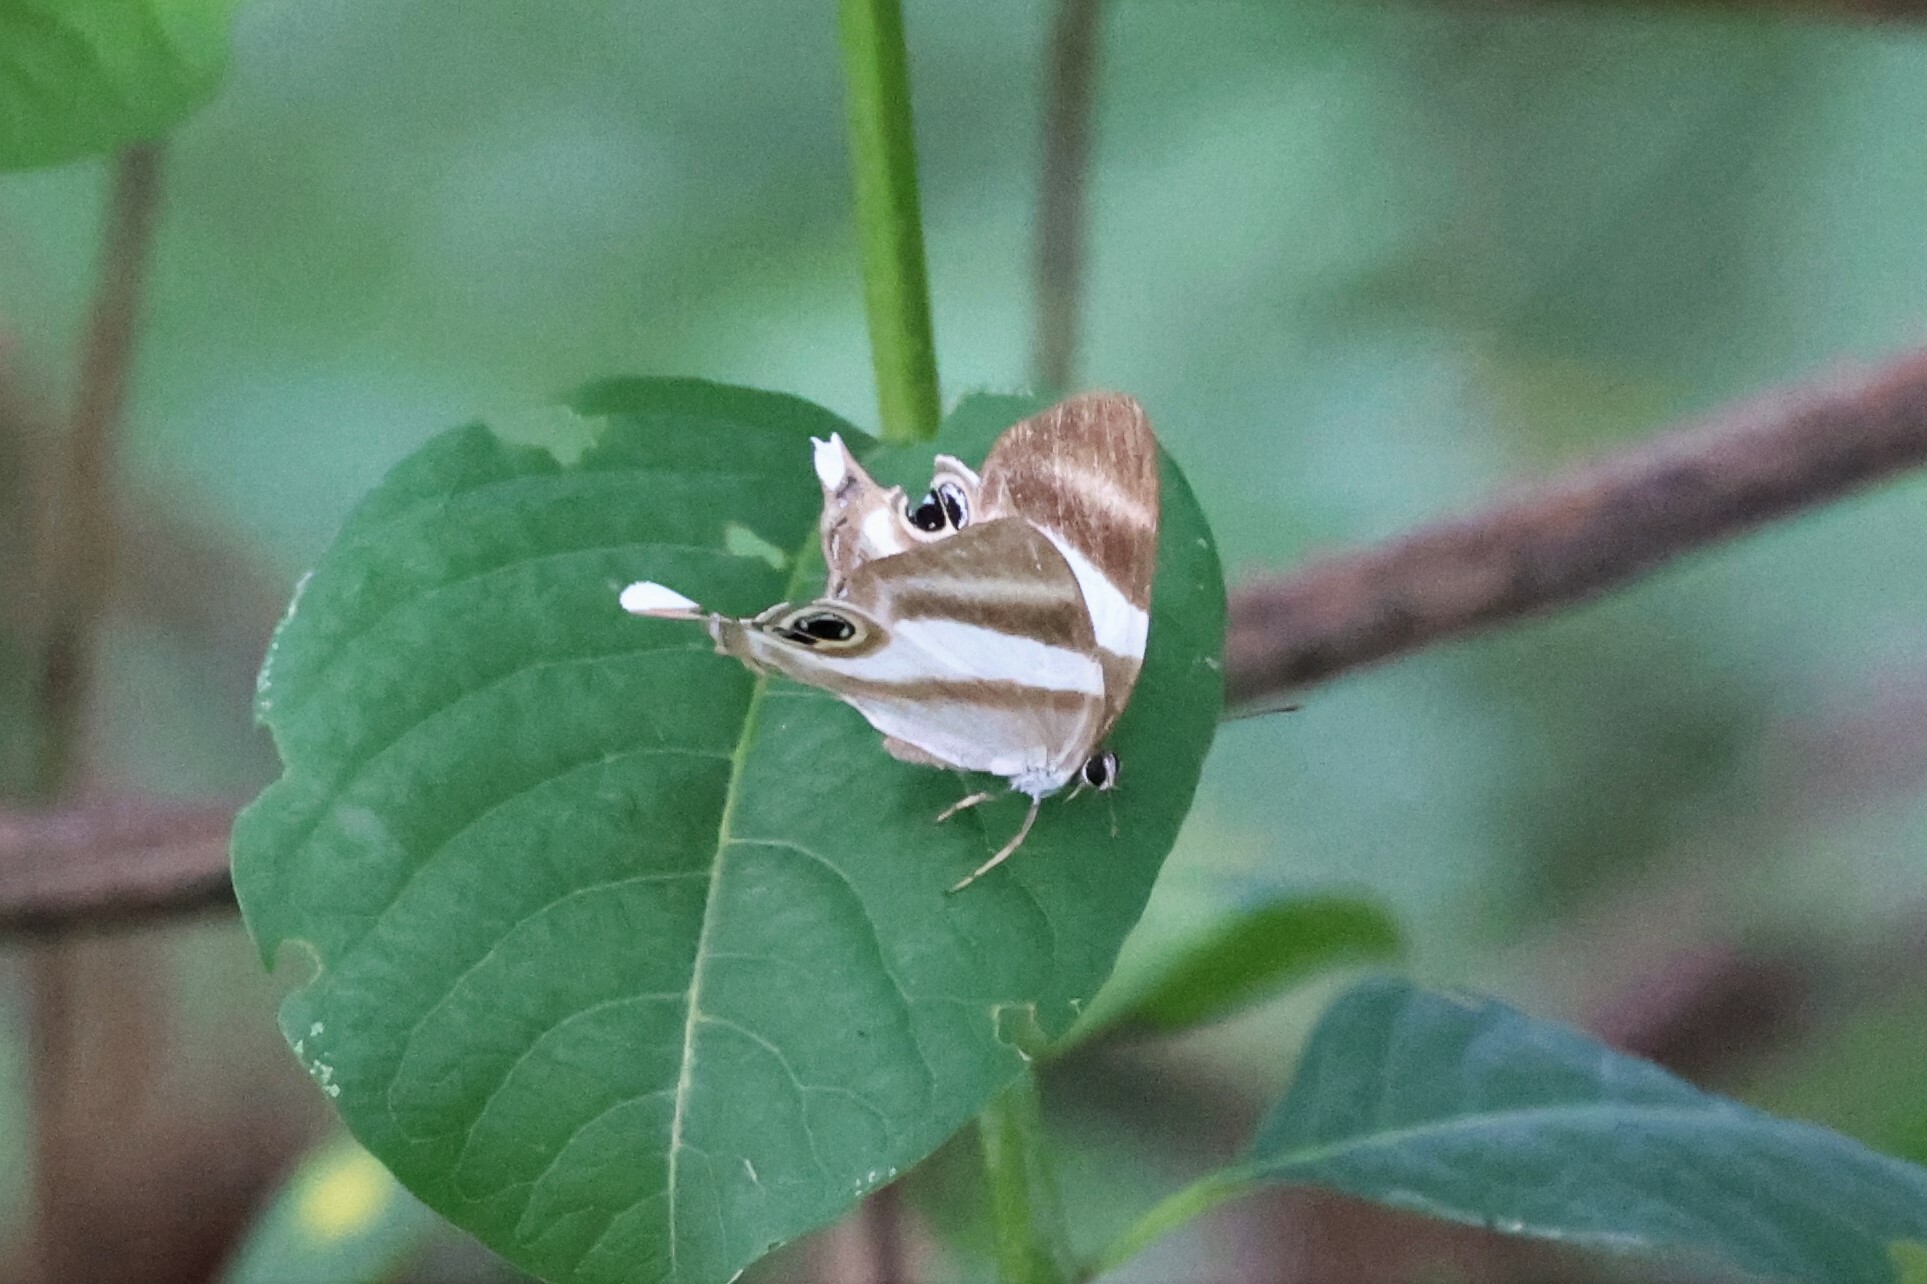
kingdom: Animalia
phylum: Arthropoda
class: Insecta
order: Lepidoptera
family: Riodinidae
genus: Afriodinia
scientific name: Afriodinia
